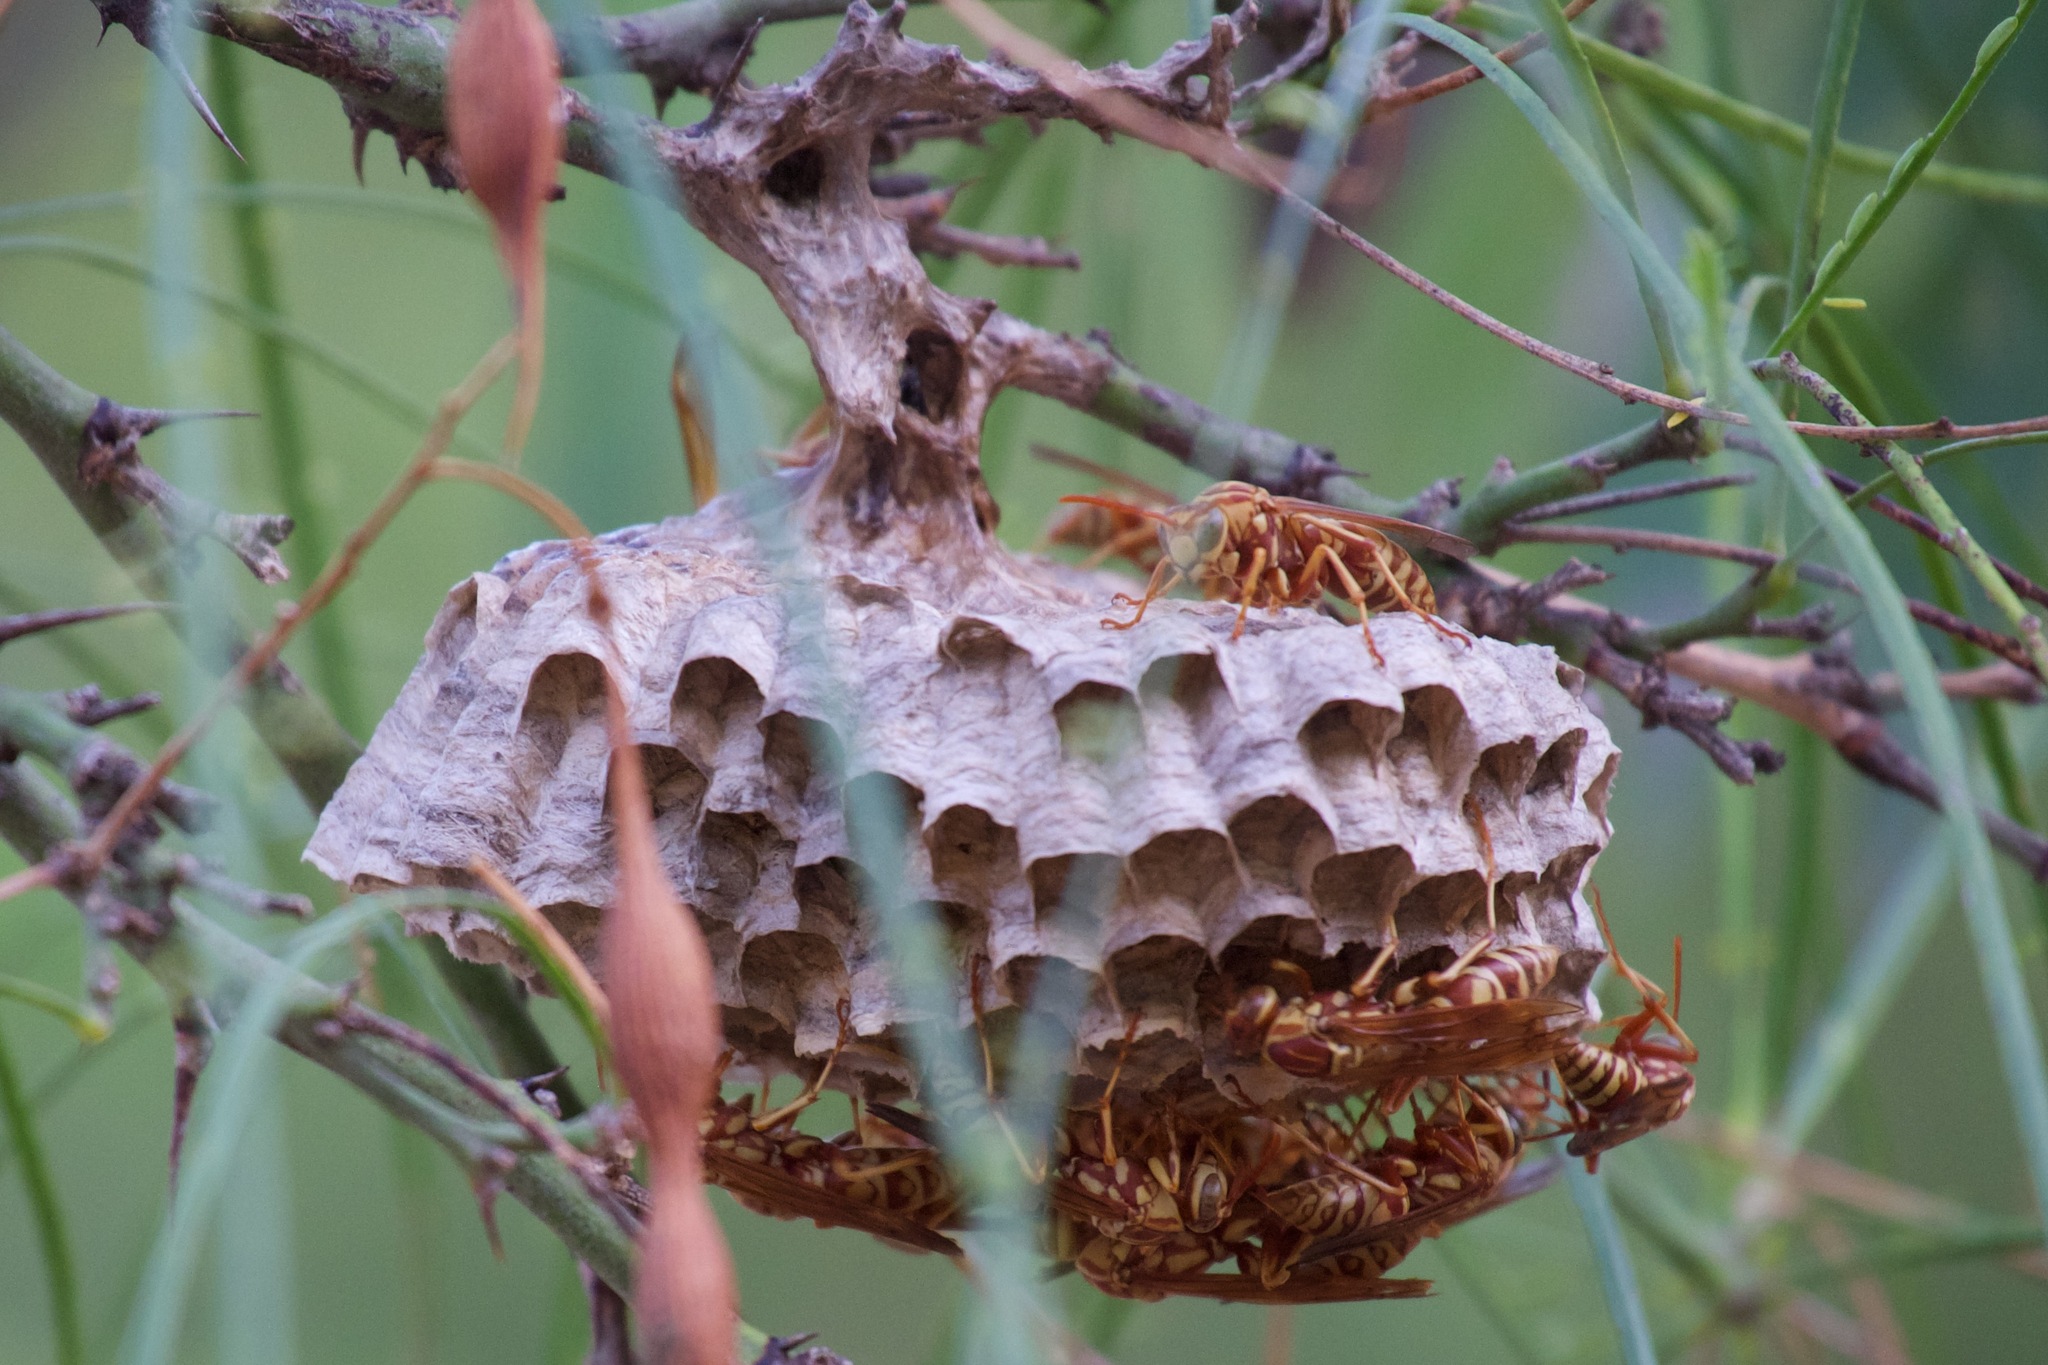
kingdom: Animalia
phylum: Arthropoda
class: Insecta
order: Hymenoptera
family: Eumenidae
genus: Polistes
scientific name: Polistes apachus
